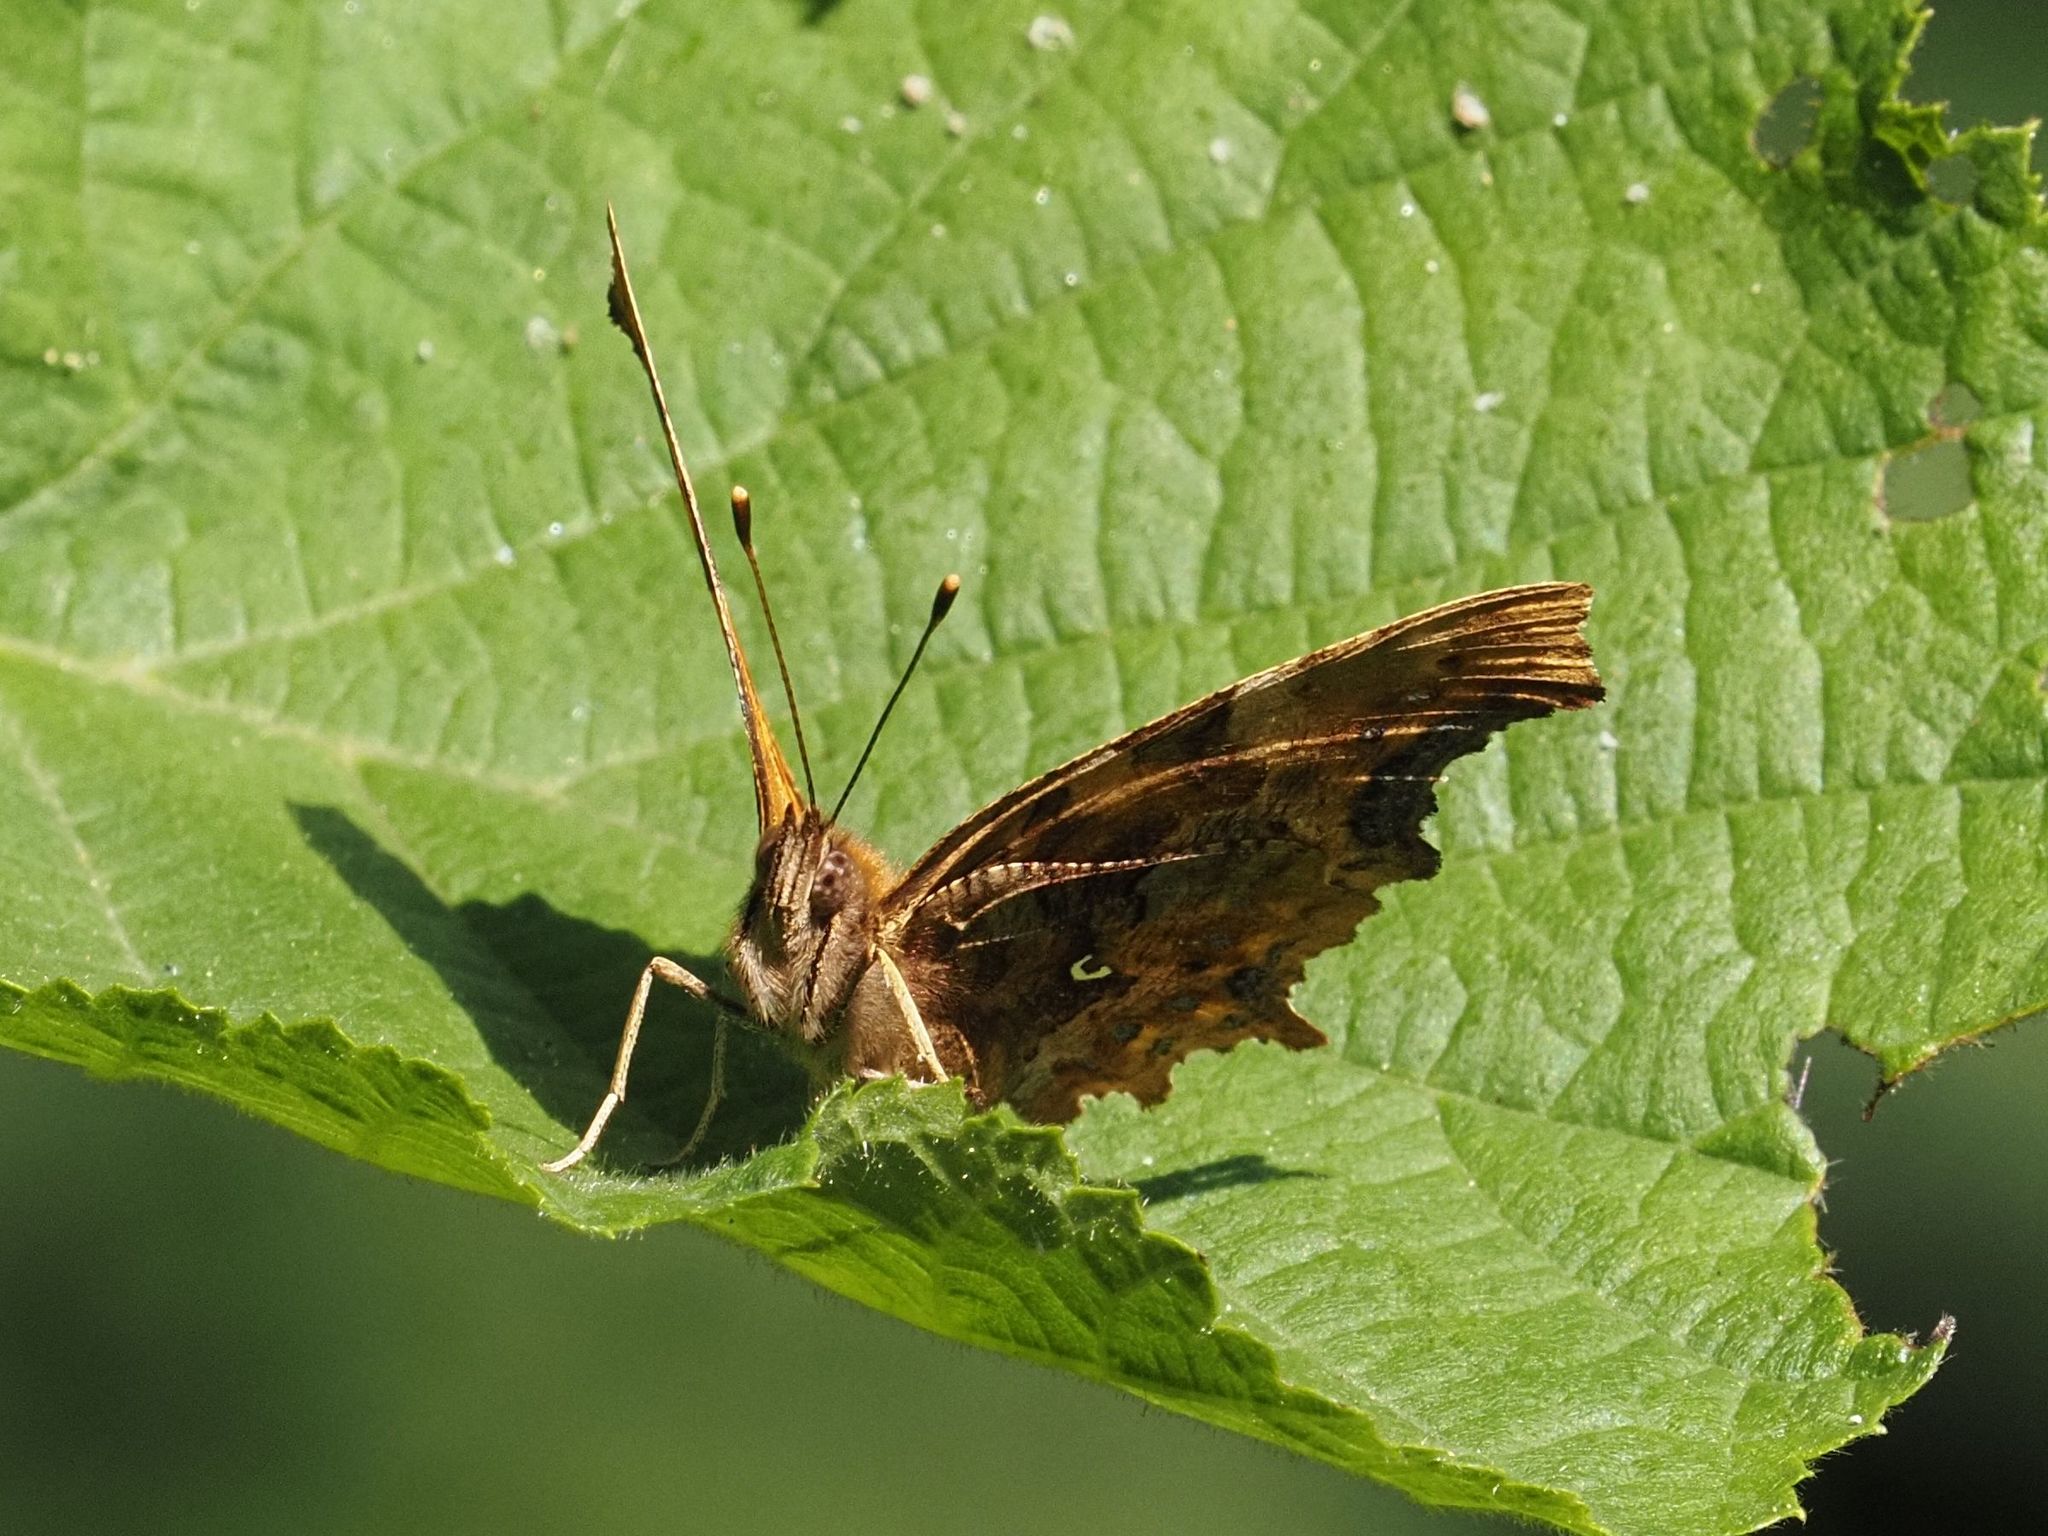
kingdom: Animalia
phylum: Arthropoda
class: Insecta
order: Lepidoptera
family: Nymphalidae
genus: Polygonia
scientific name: Polygonia c-album
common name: Comma
